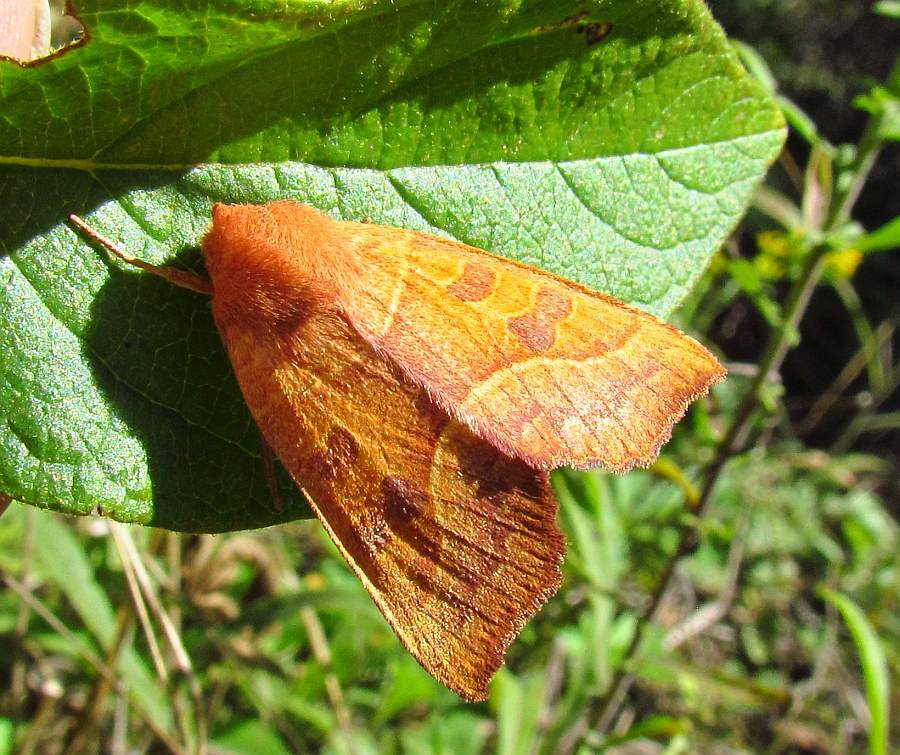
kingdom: Animalia
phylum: Arthropoda
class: Insecta
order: Lepidoptera
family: Noctuidae
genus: Eucirroedia
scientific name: Eucirroedia pampina
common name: Scalloped sallow
